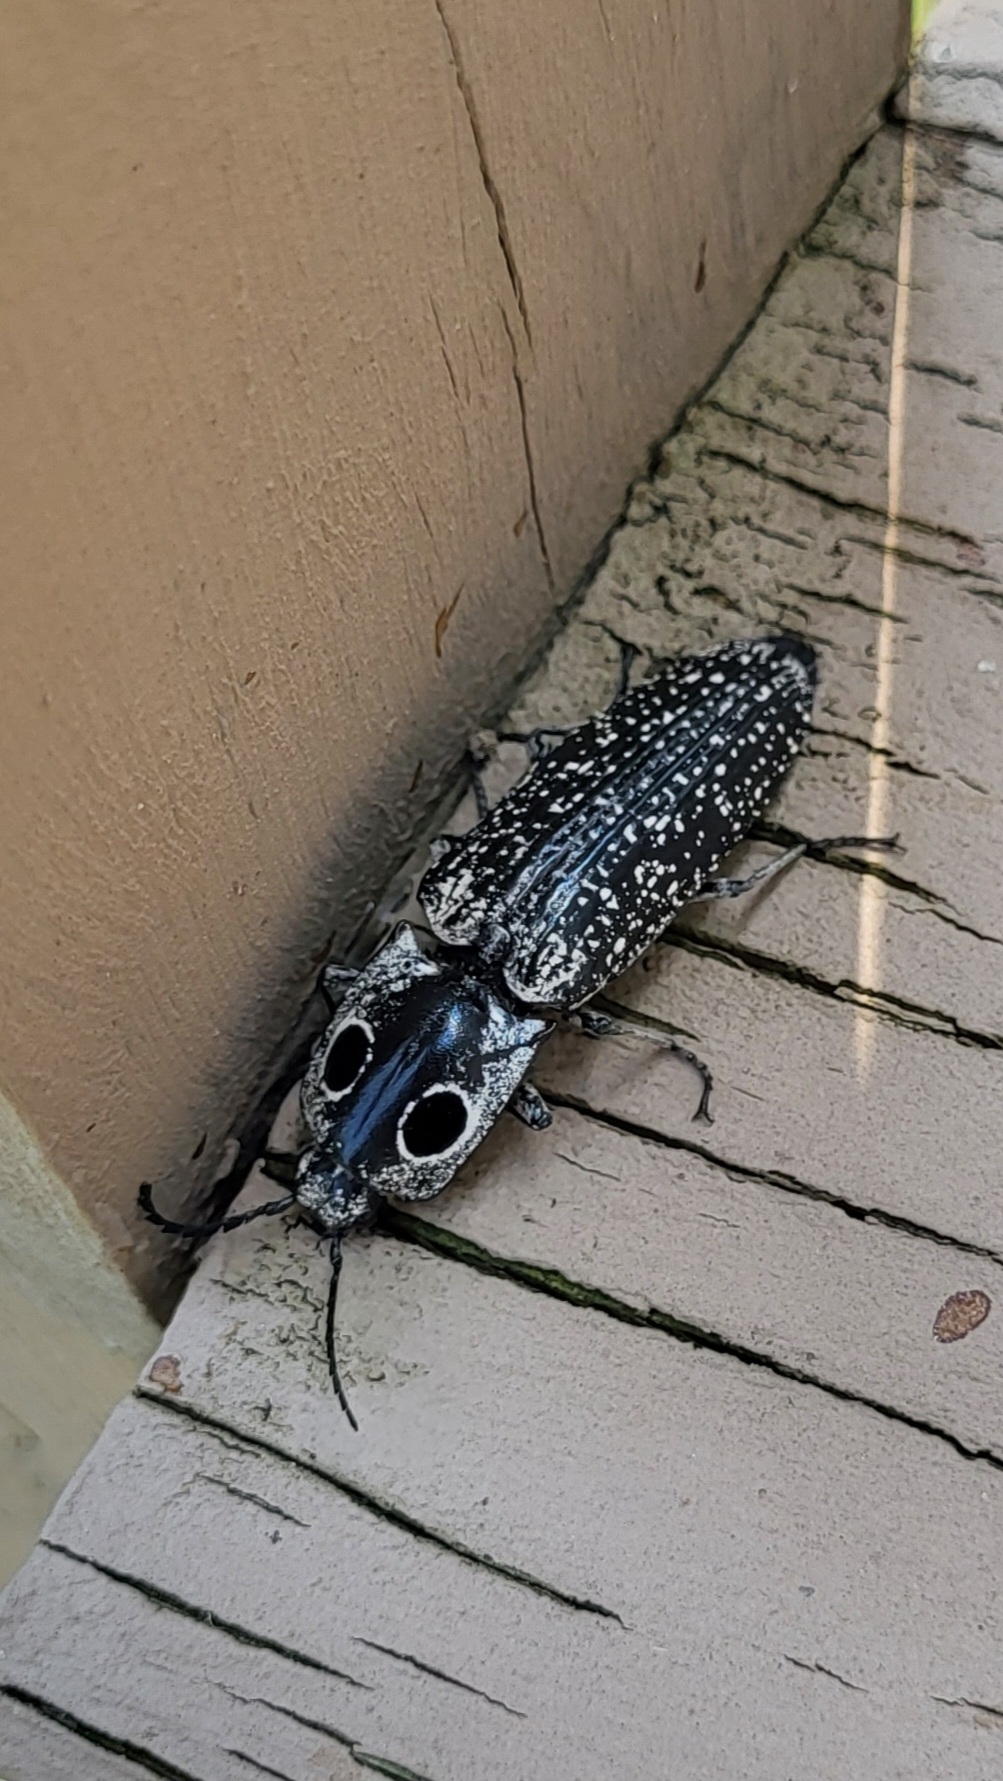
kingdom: Animalia
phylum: Arthropoda
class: Insecta
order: Coleoptera
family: Elateridae
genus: Alaus
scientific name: Alaus oculatus
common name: Eastern eyed click beetle
